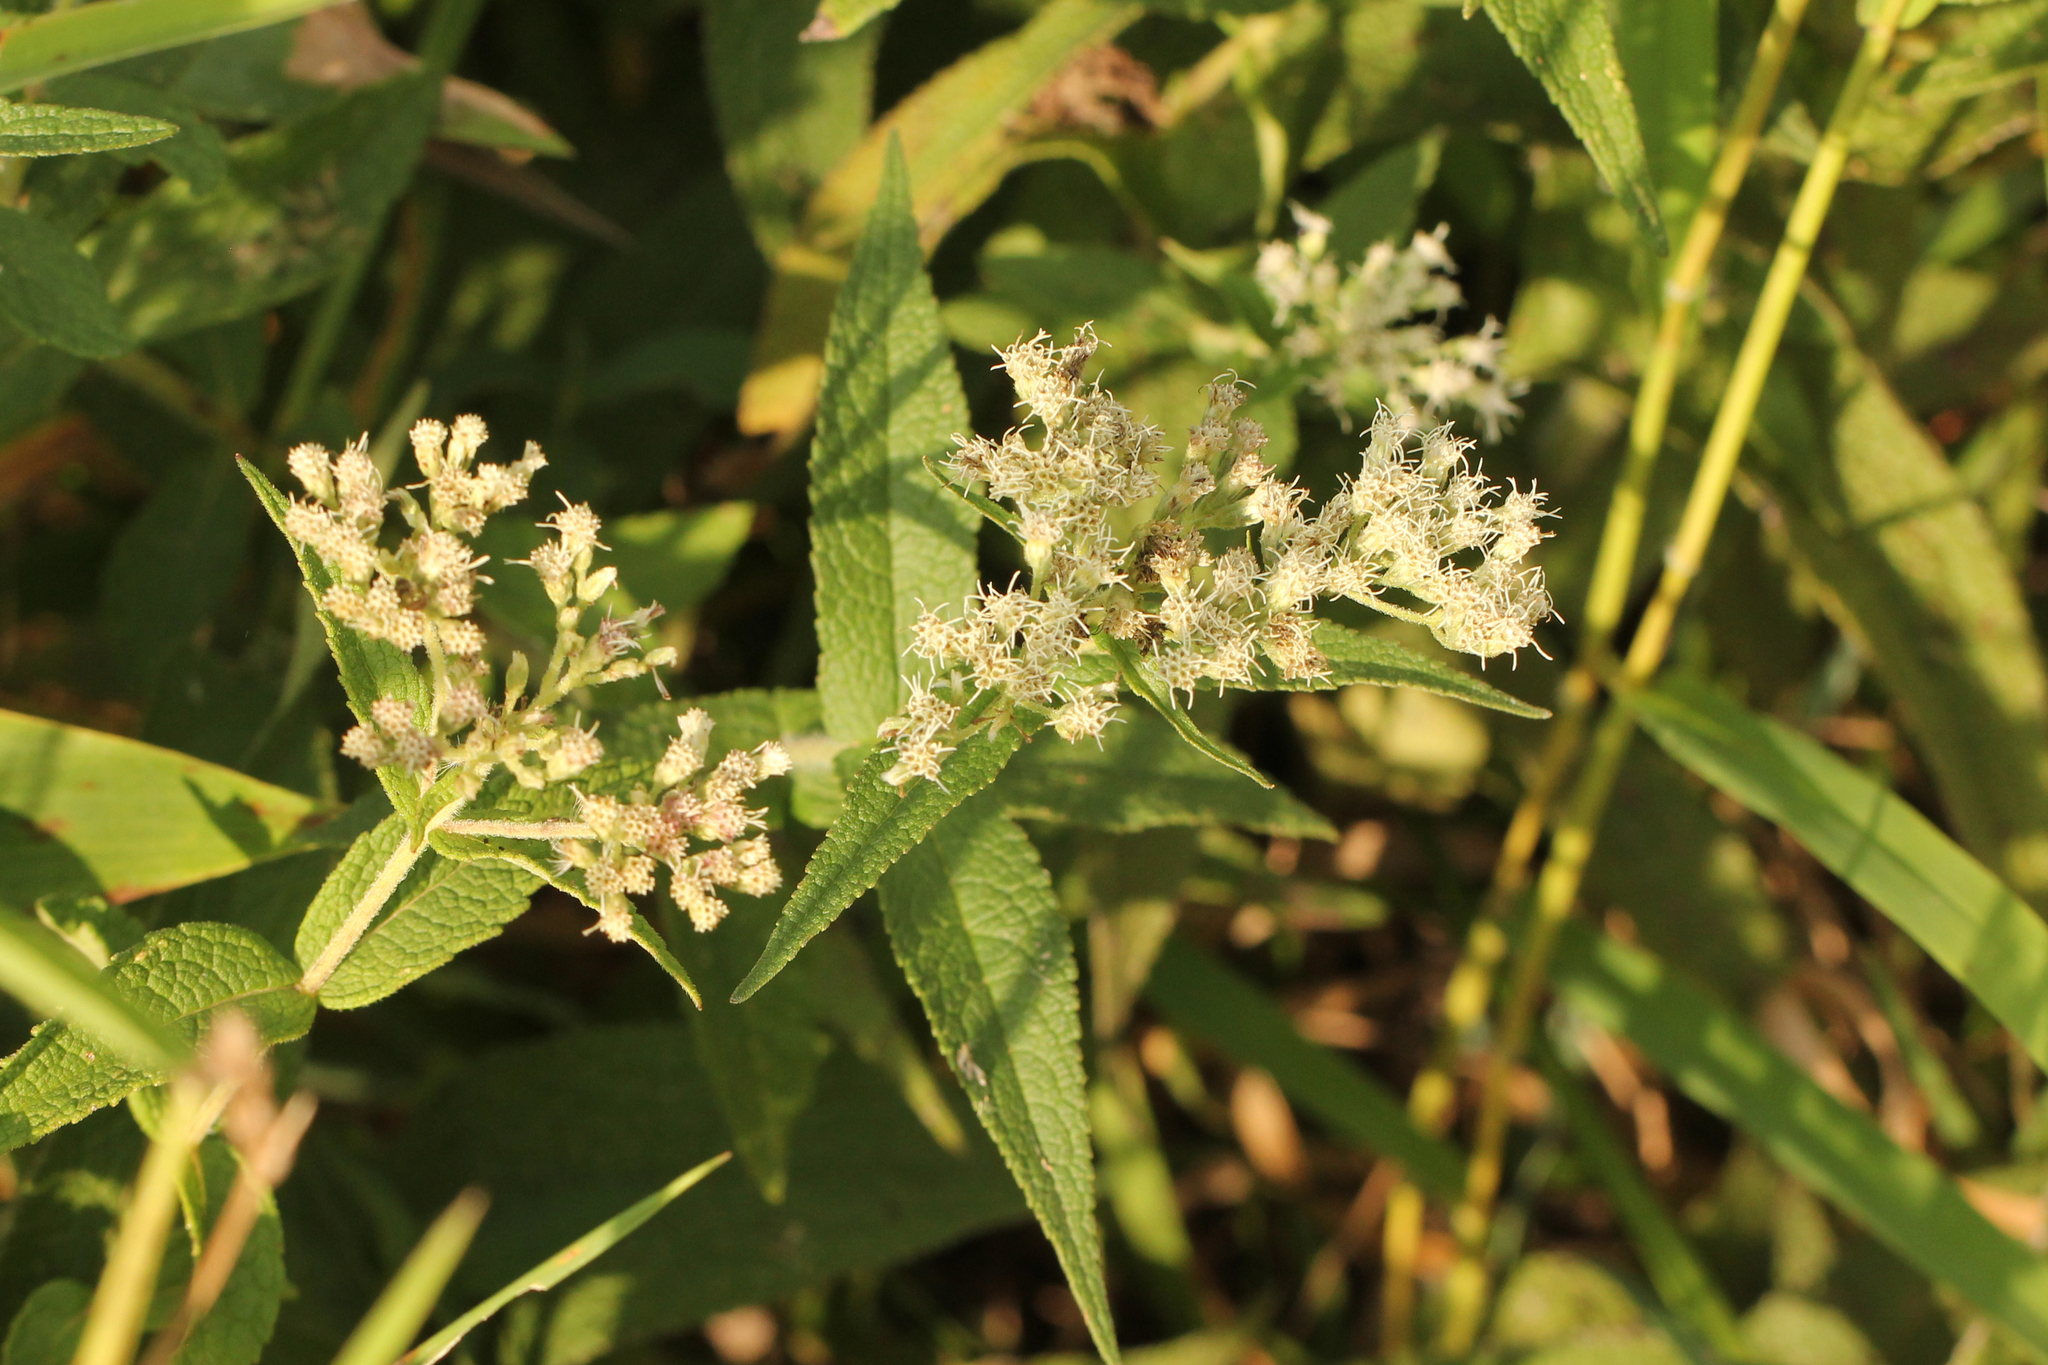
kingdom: Plantae
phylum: Tracheophyta
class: Magnoliopsida
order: Asterales
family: Asteraceae
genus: Eupatorium
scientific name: Eupatorium perfoliatum
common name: Boneset
